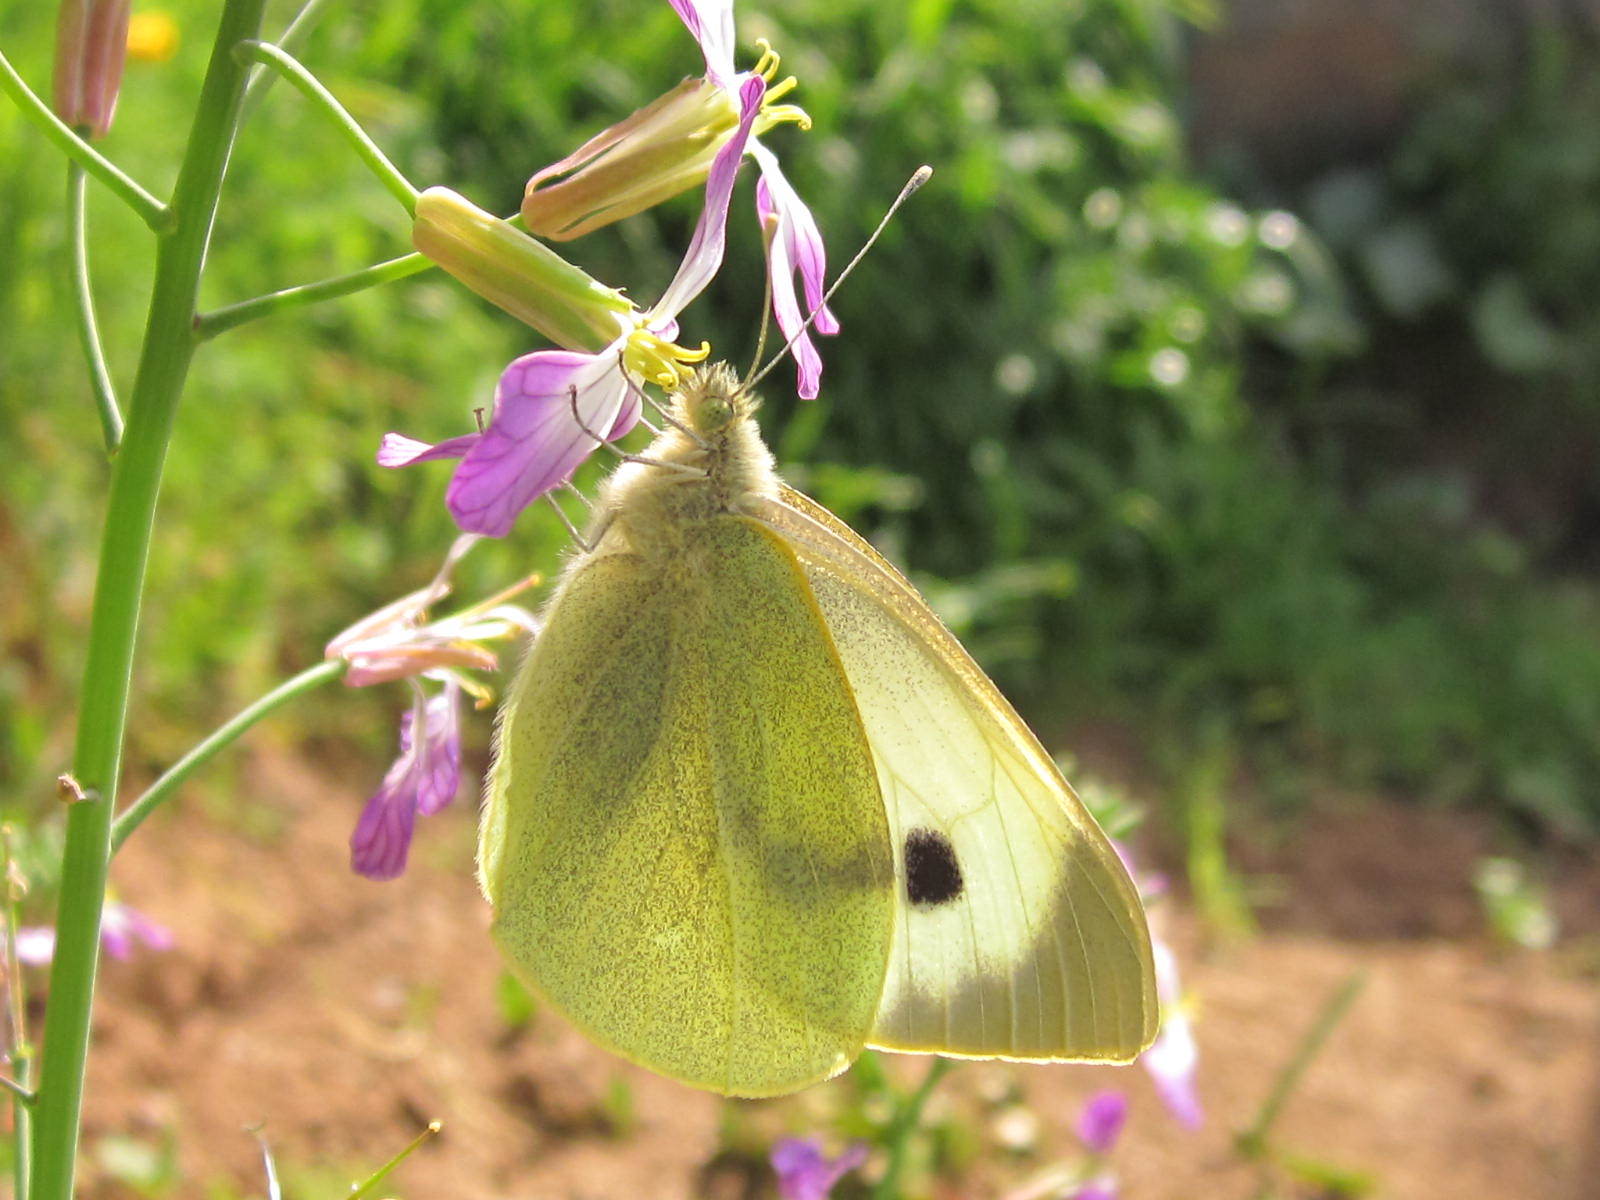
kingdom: Animalia
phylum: Arthropoda
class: Insecta
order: Lepidoptera
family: Pieridae
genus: Pieris
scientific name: Pieris brassicae
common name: Large white
